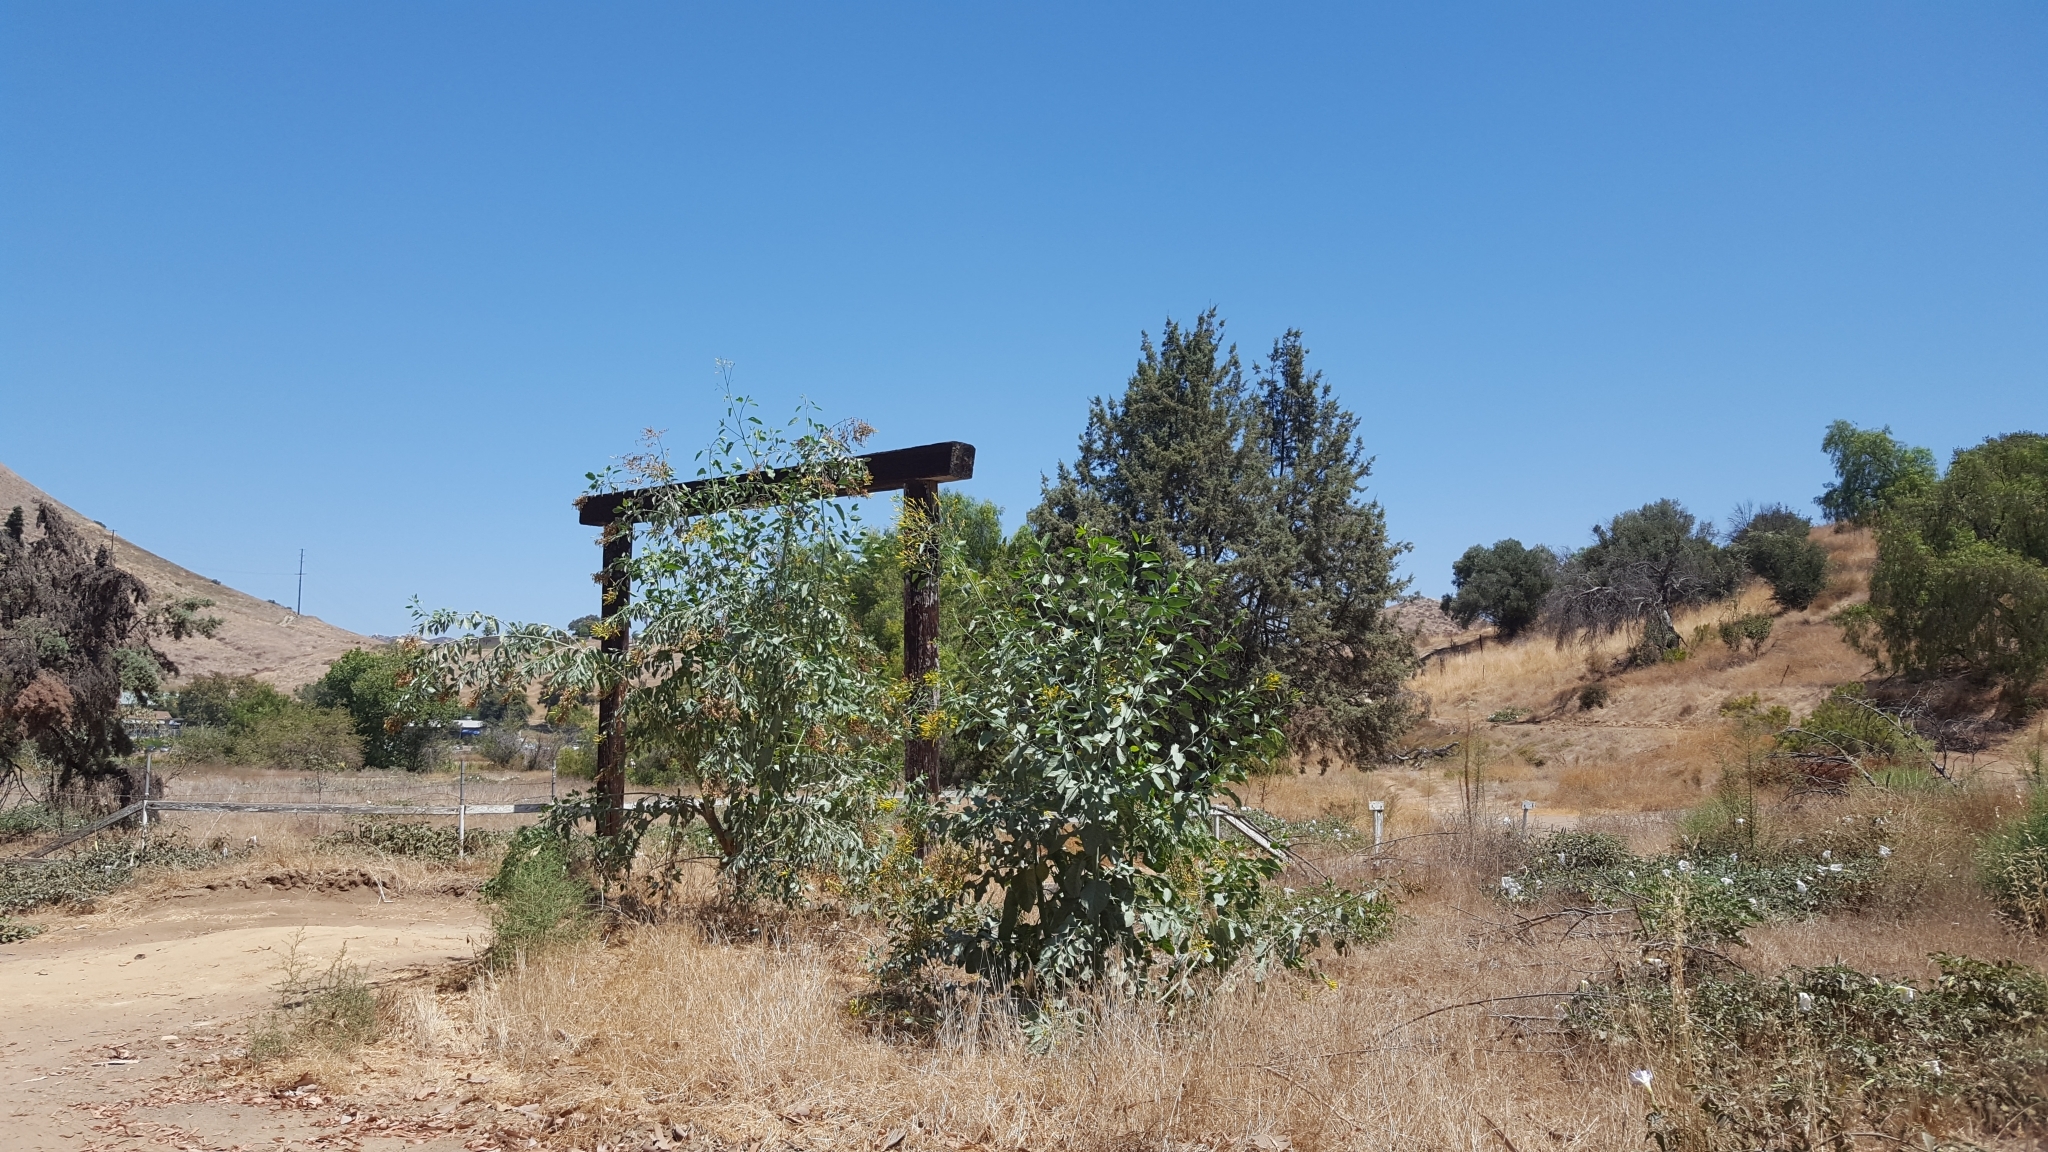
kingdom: Plantae
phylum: Tracheophyta
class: Magnoliopsida
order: Solanales
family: Solanaceae
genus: Nicotiana
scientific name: Nicotiana glauca
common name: Tree tobacco
